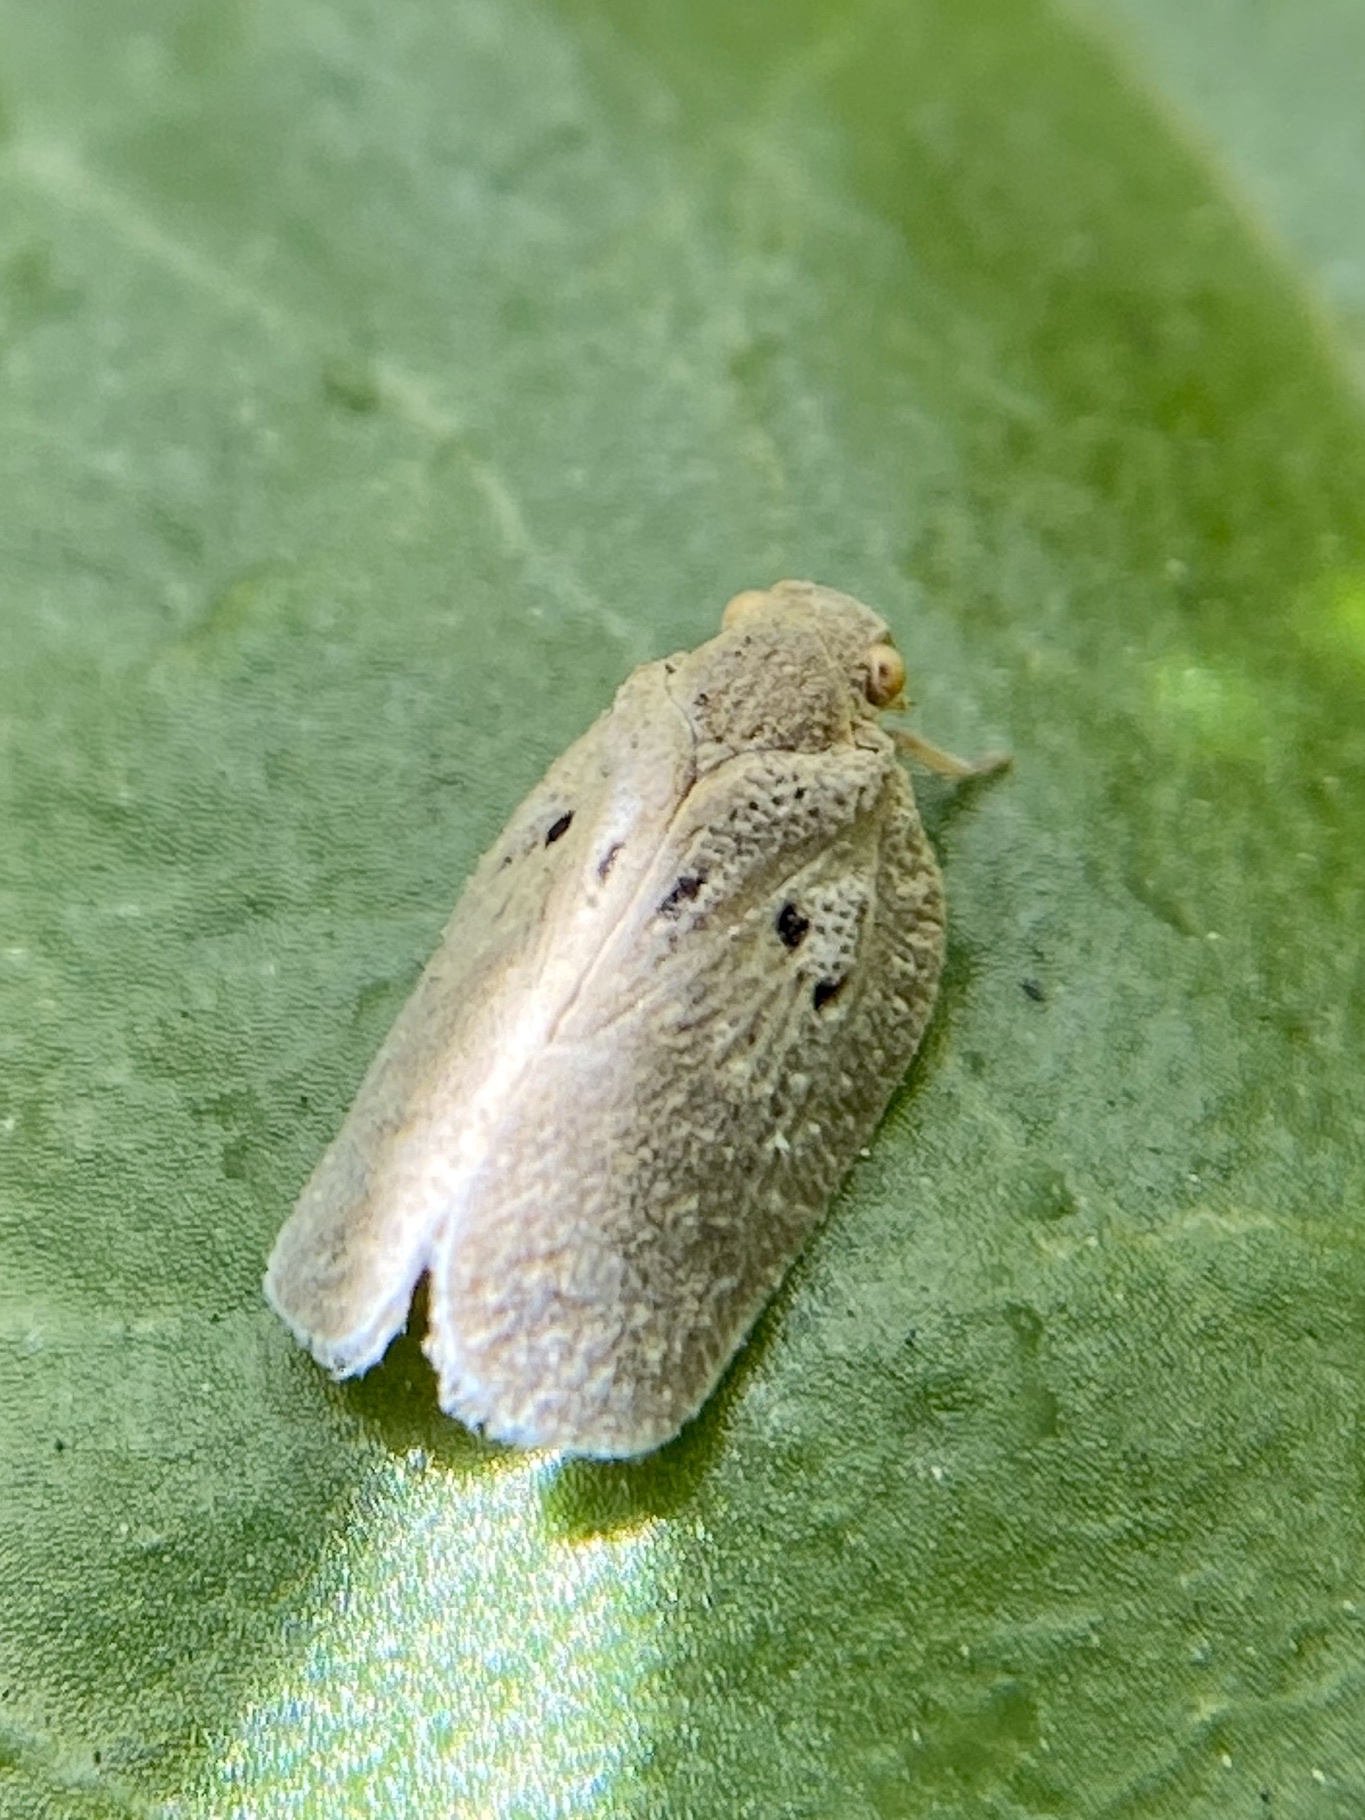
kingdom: Animalia
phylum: Arthropoda
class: Insecta
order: Hemiptera
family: Flatidae
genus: Melormenis
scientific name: Melormenis basalis
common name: Puerto rican planthopper
